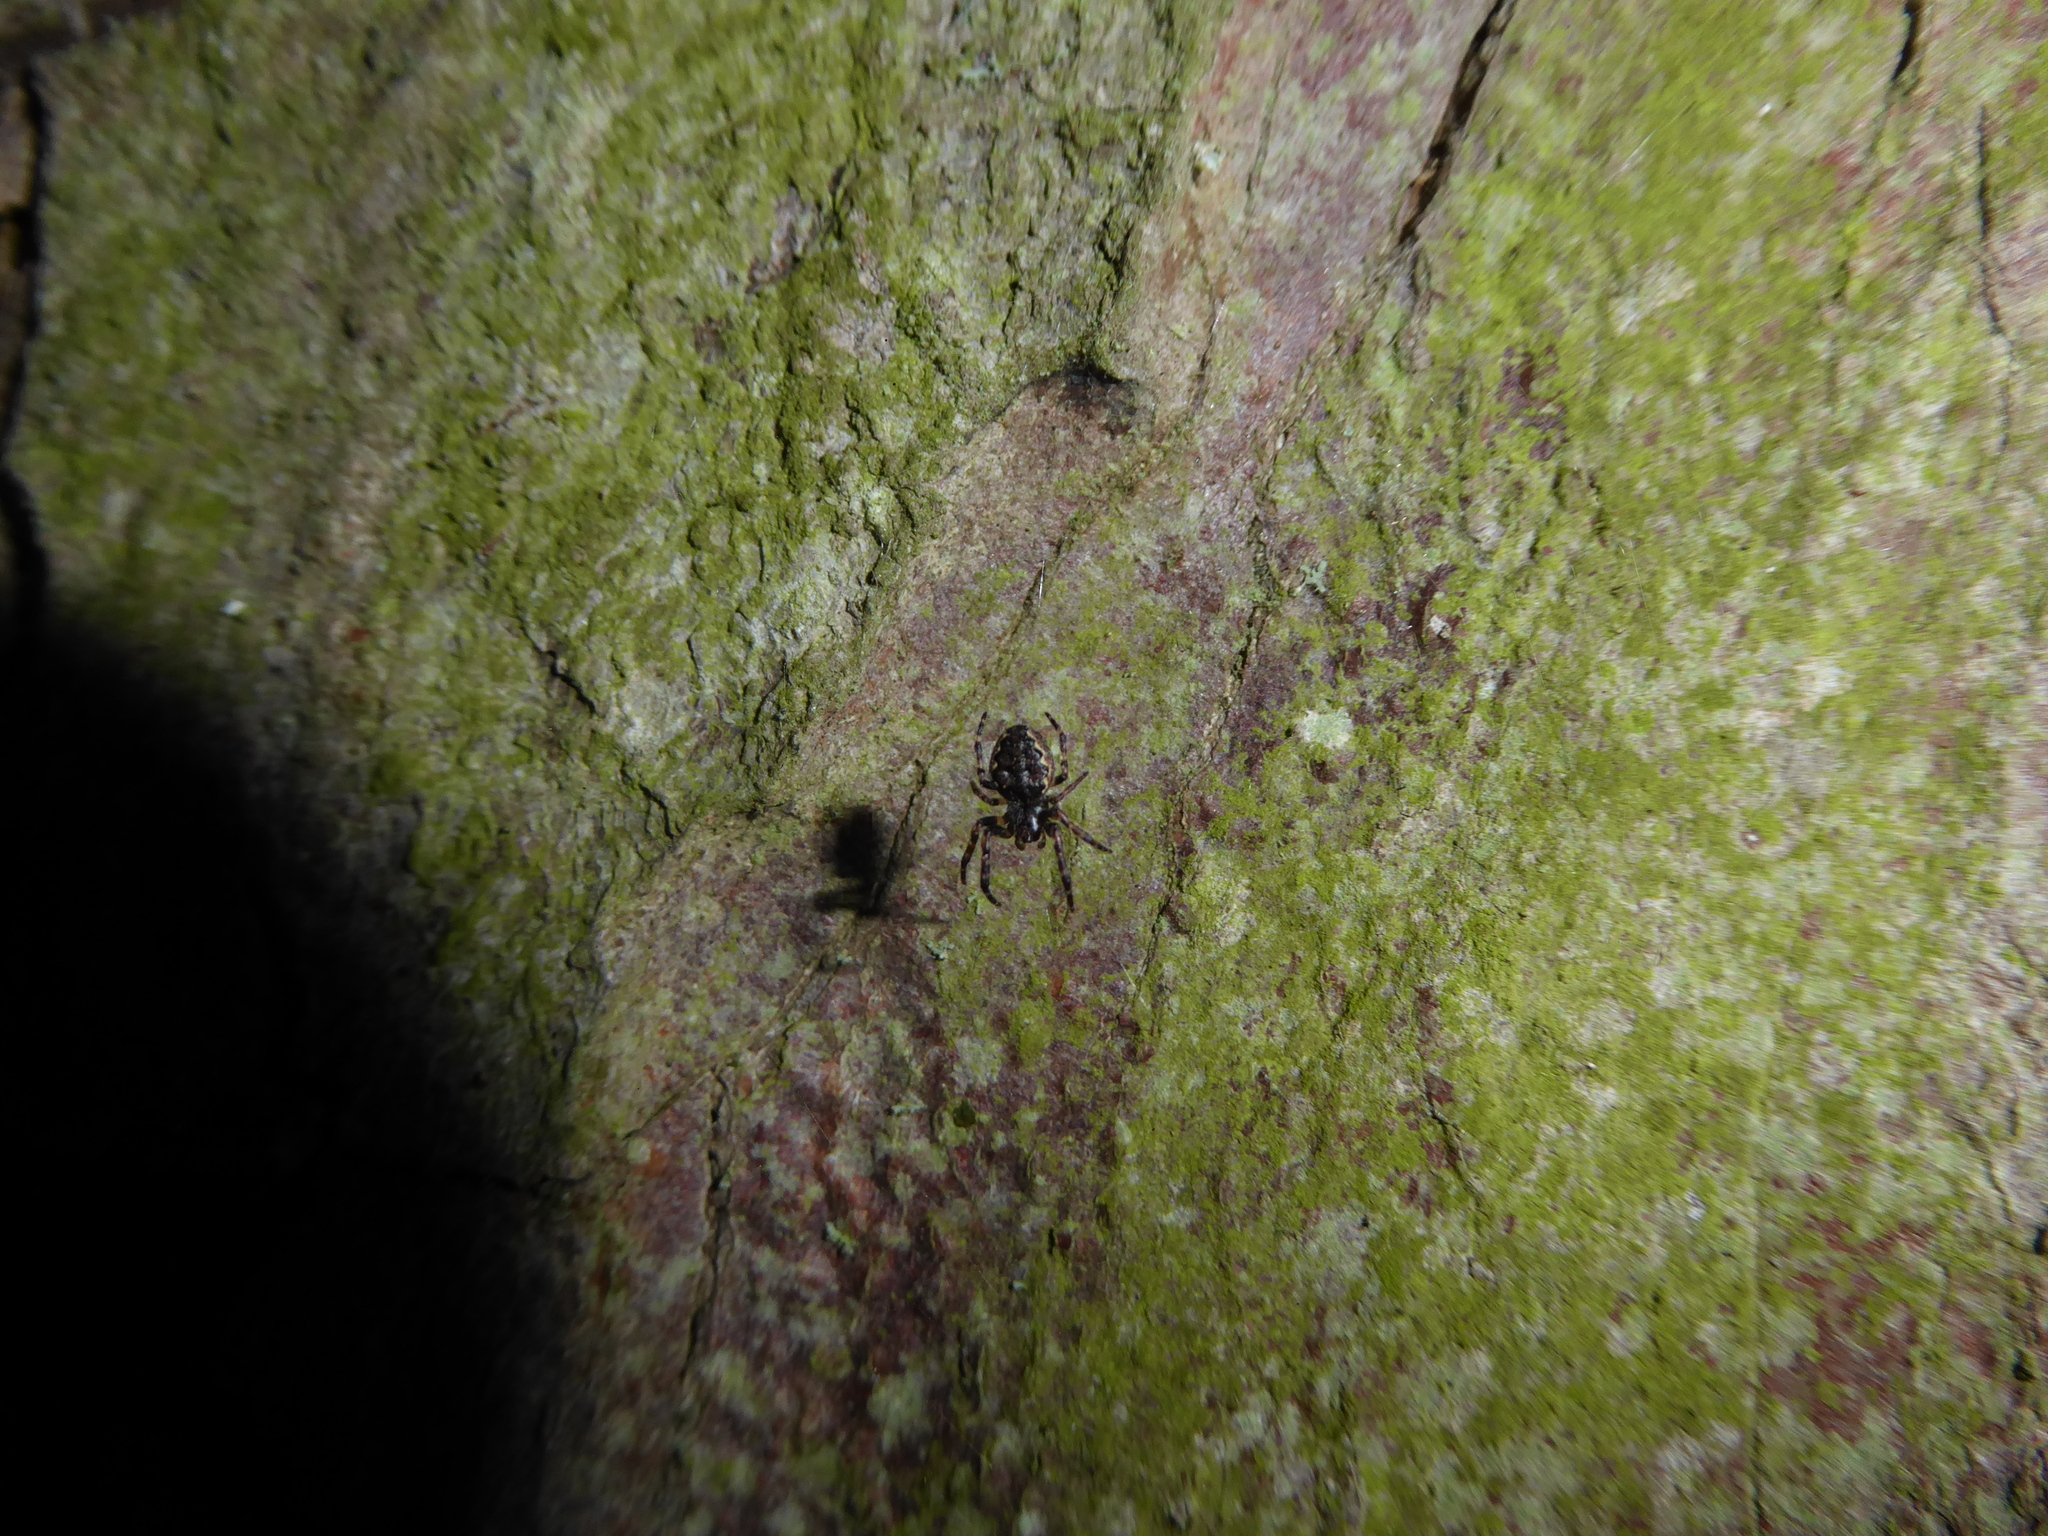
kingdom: Animalia
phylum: Arthropoda
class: Arachnida
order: Araneae
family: Araneidae
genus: Nuctenea
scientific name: Nuctenea umbratica
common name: Toad spider
